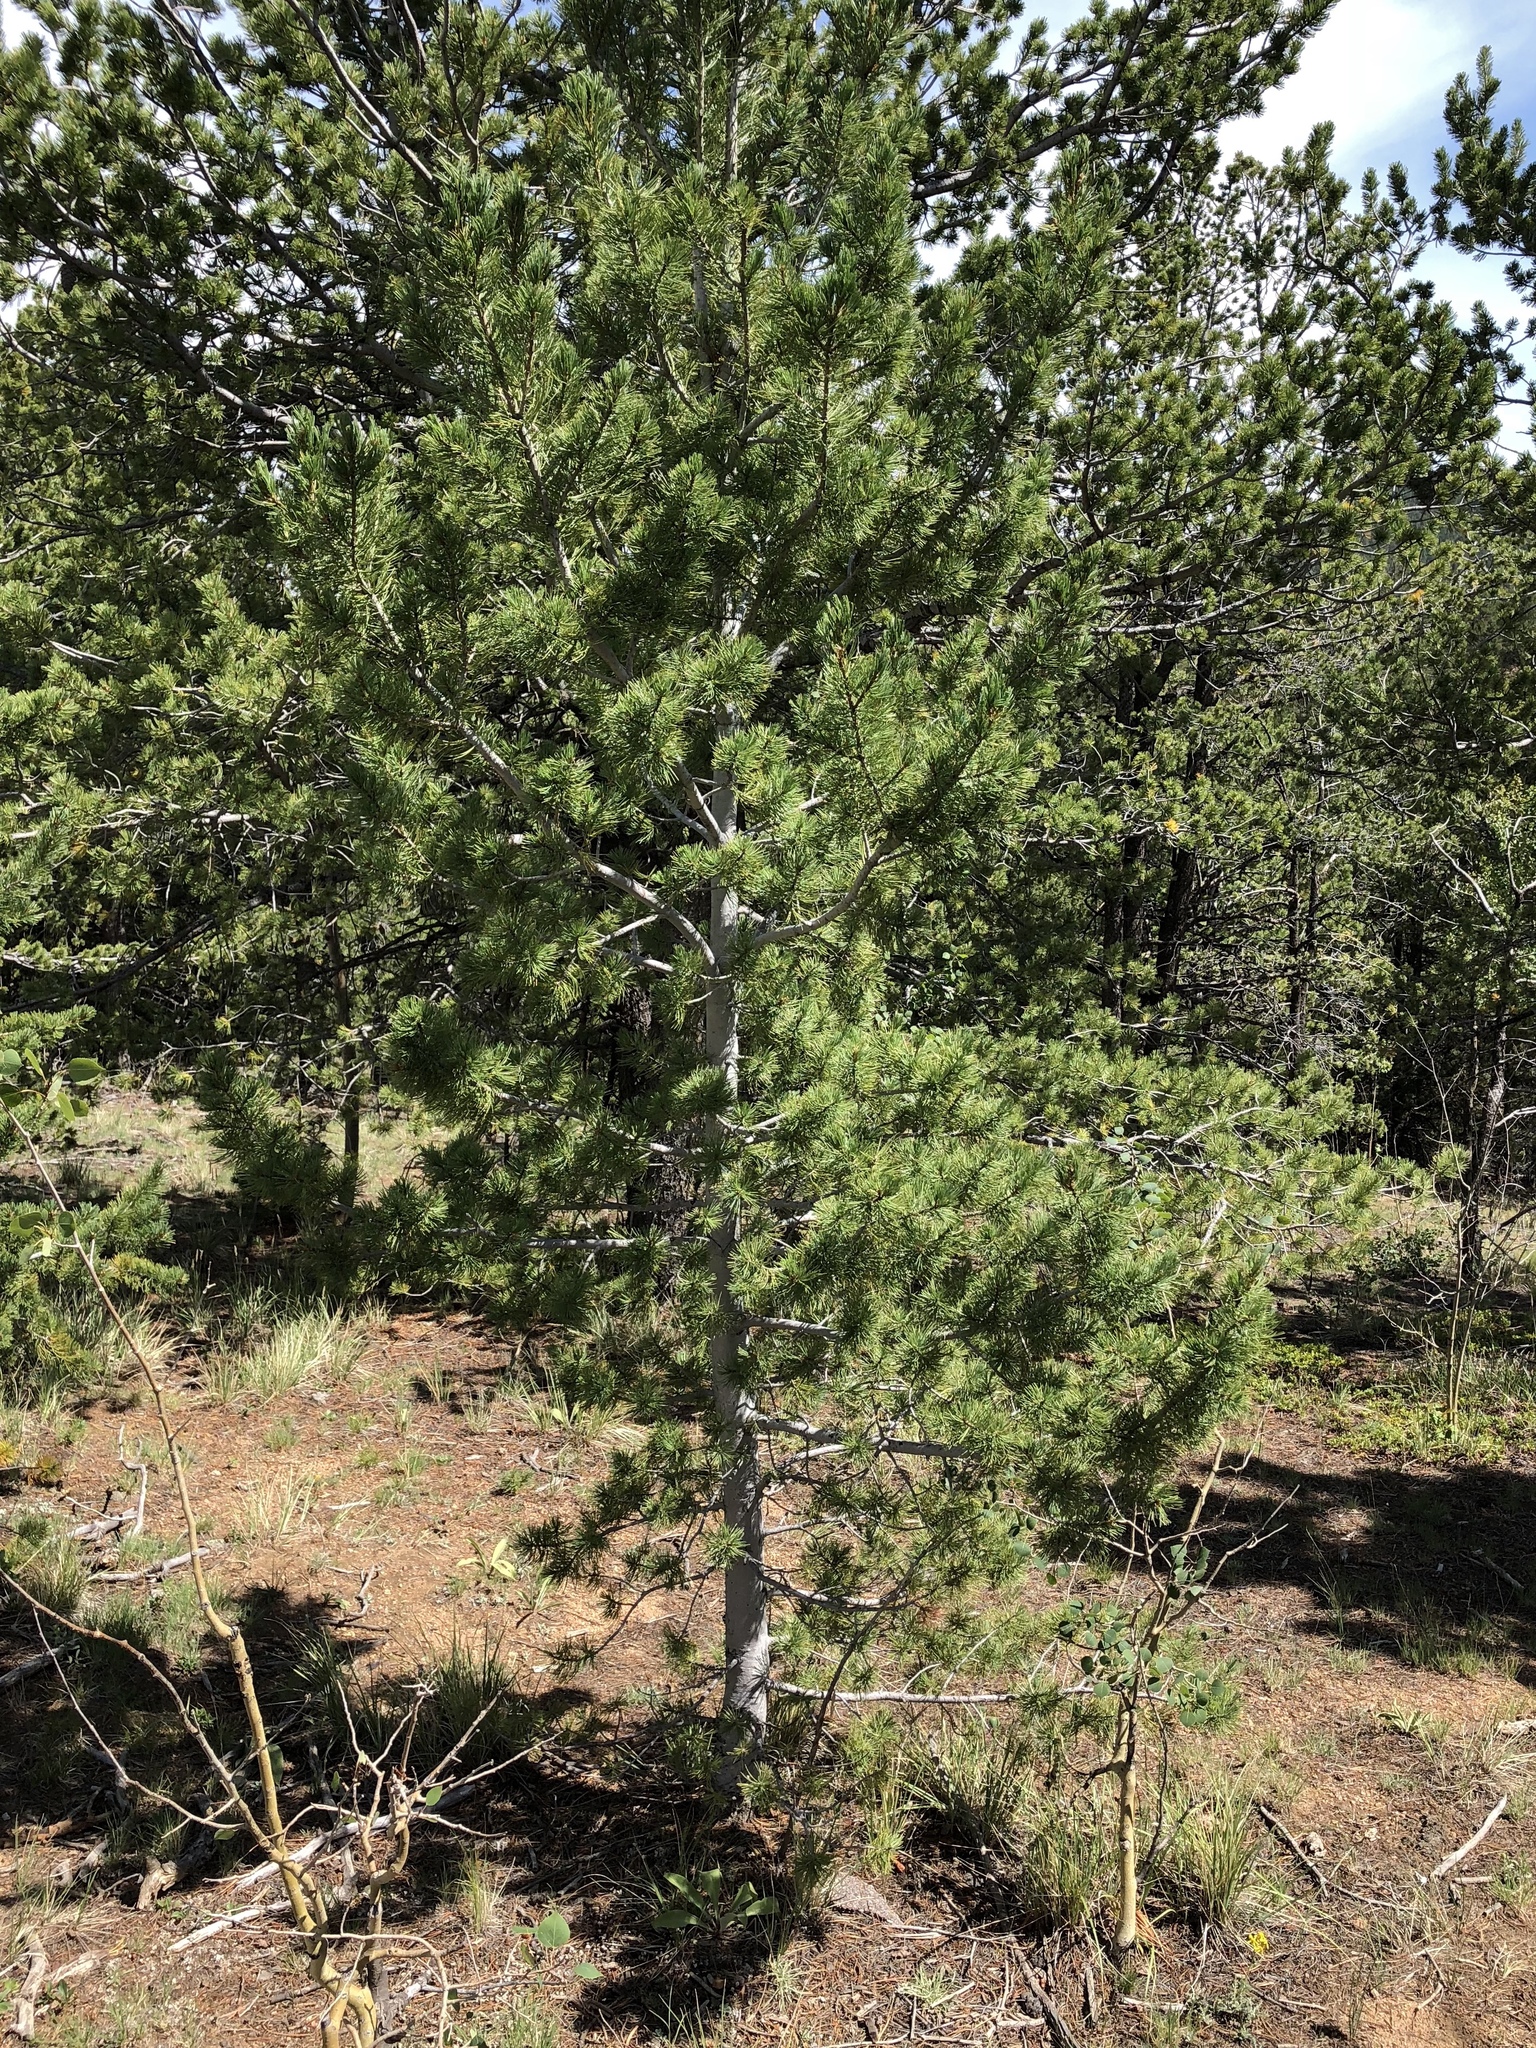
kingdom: Plantae
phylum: Tracheophyta
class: Pinopsida
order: Pinales
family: Pinaceae
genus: Pinus
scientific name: Pinus flexilis
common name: Limber pine
